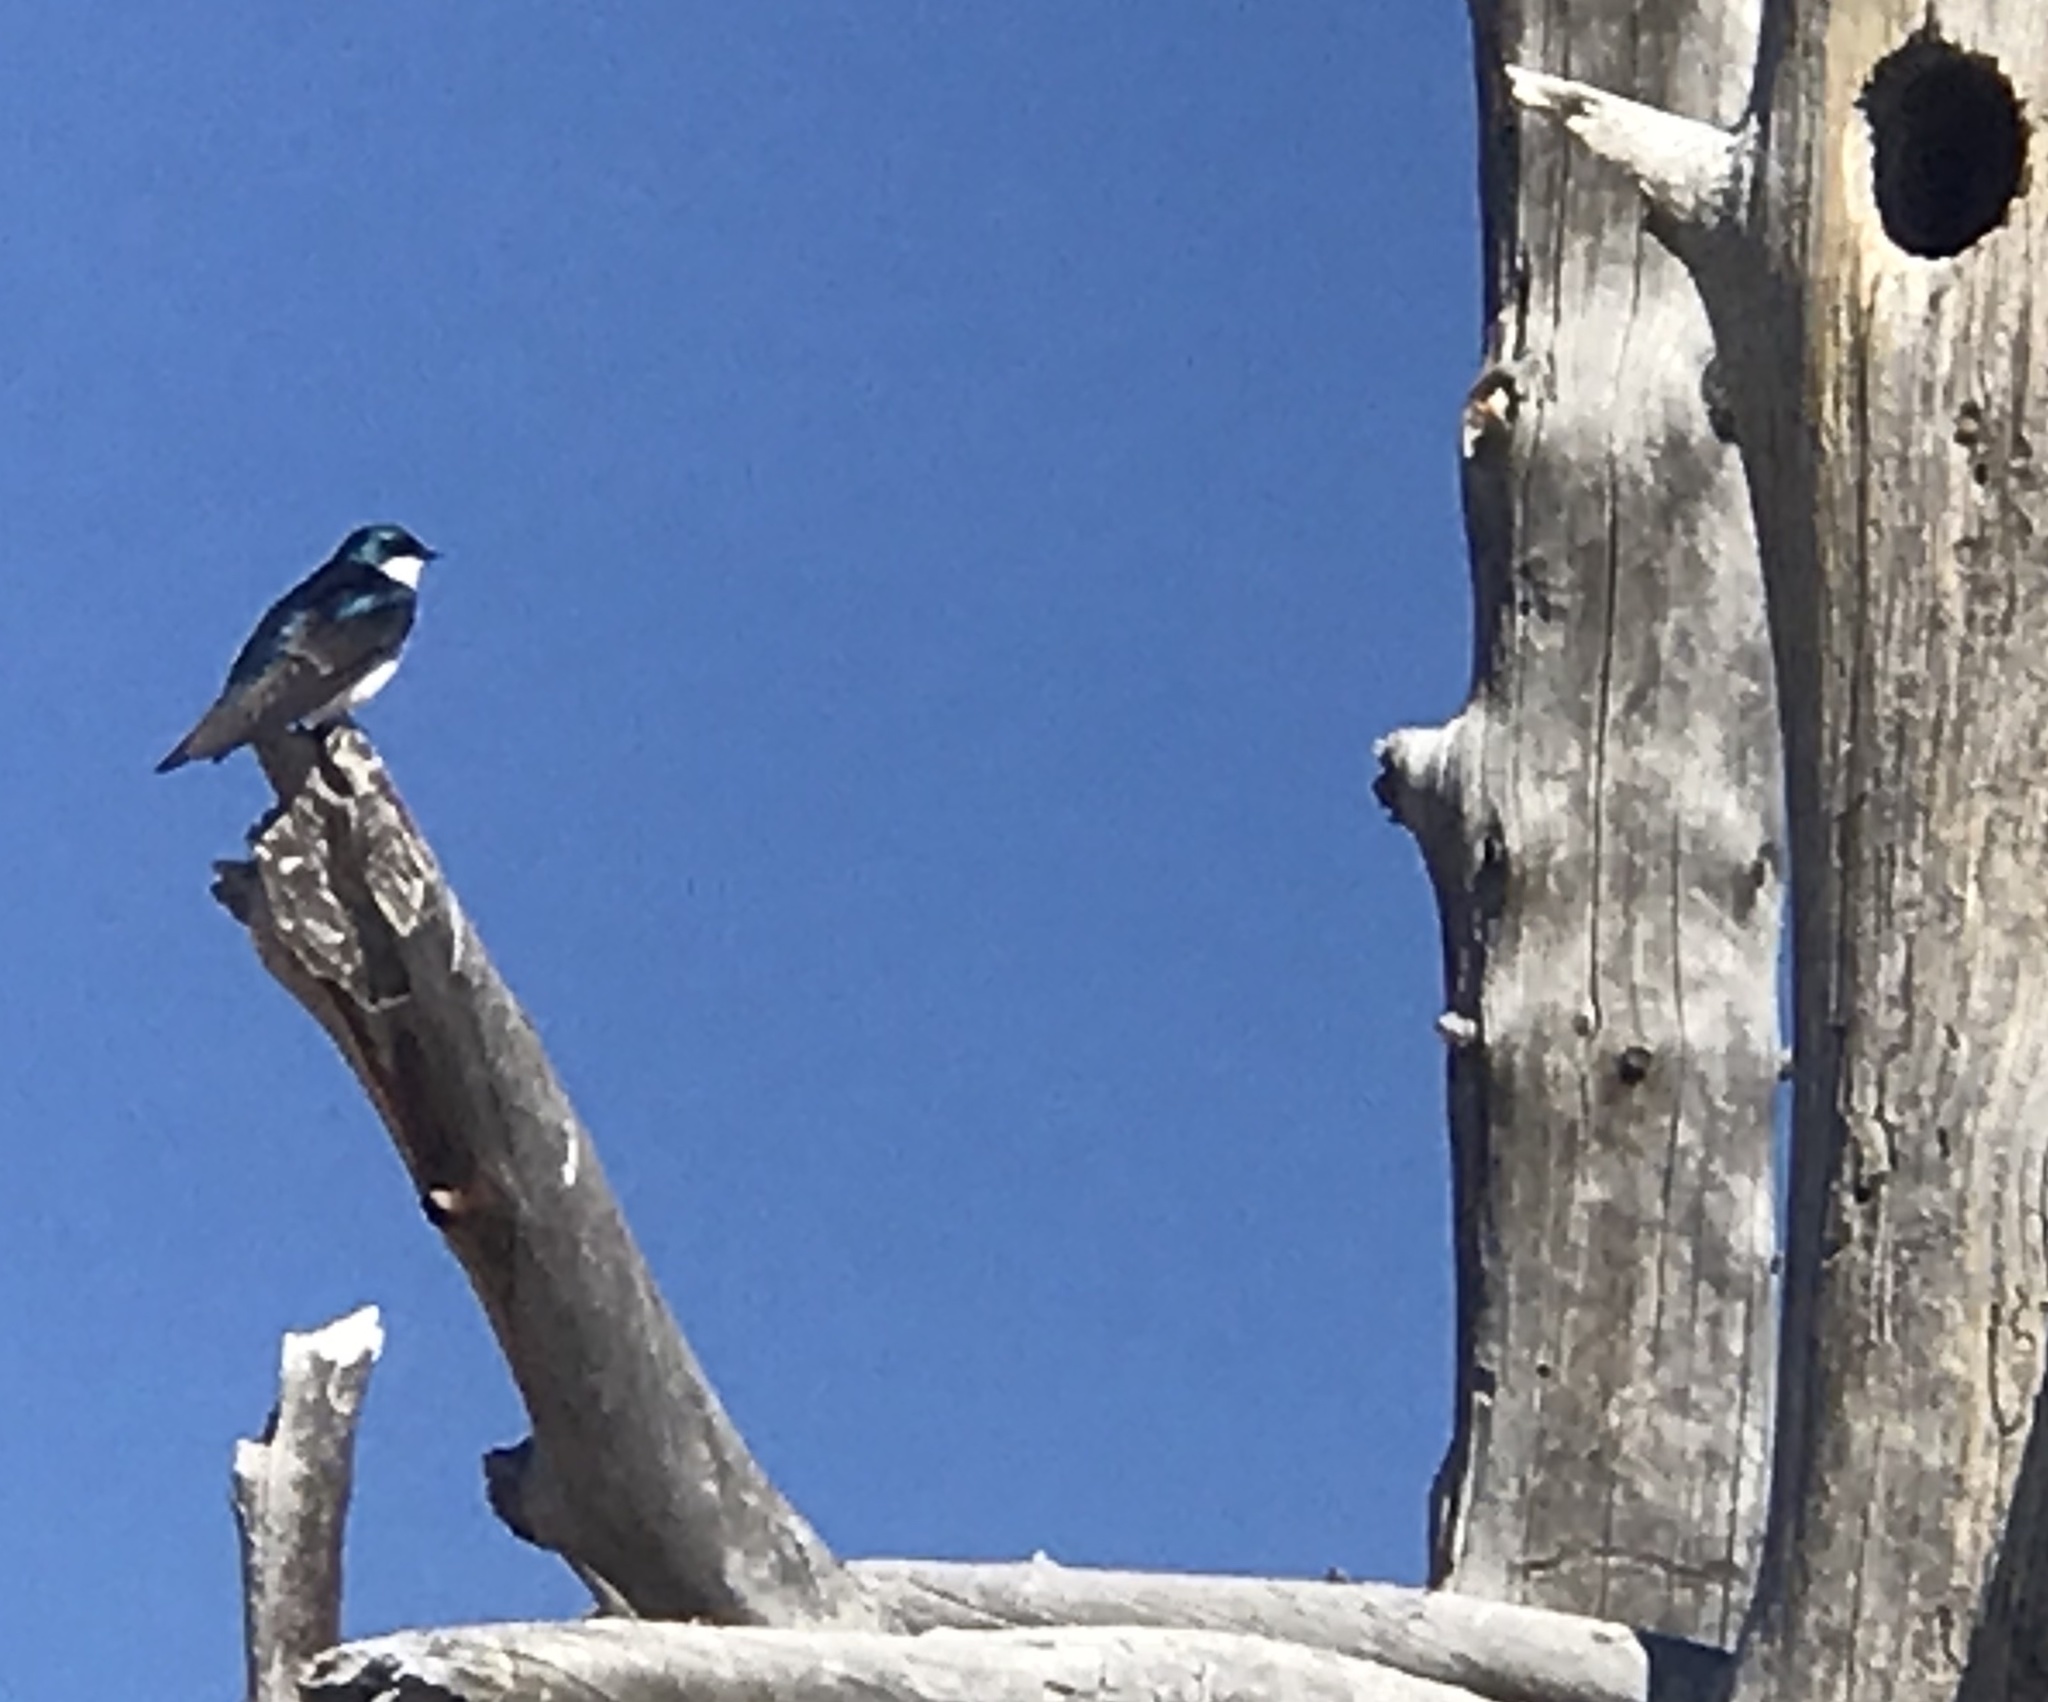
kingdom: Animalia
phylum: Chordata
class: Aves
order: Passeriformes
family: Hirundinidae
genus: Tachycineta
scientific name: Tachycineta bicolor
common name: Tree swallow
